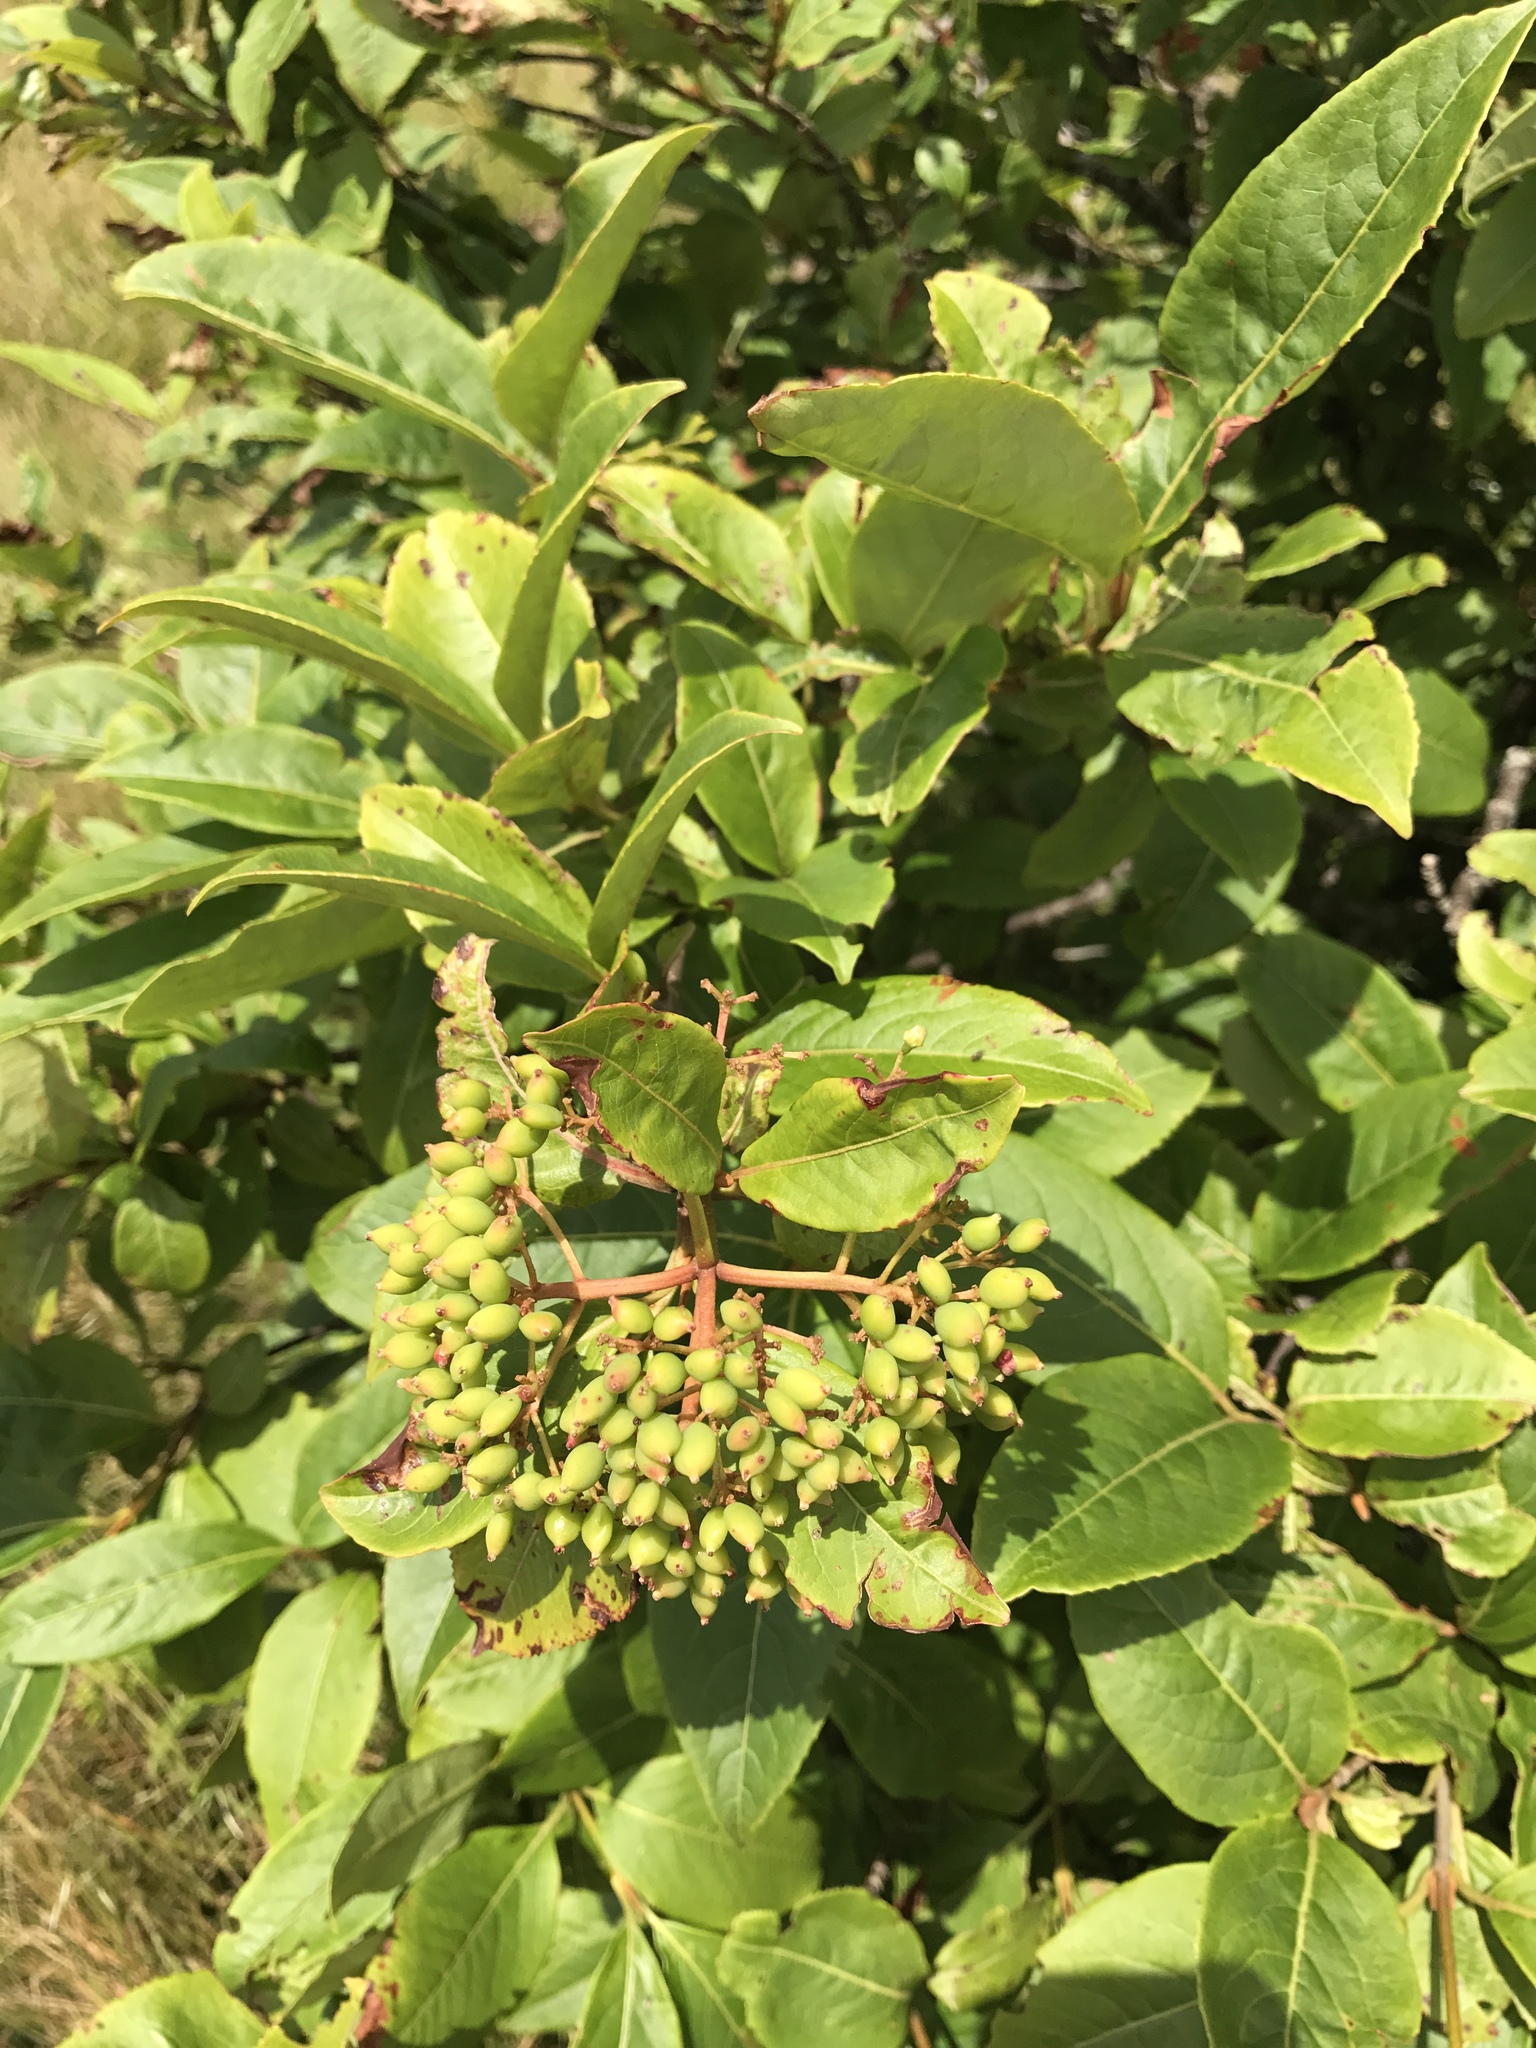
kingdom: Plantae
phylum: Tracheophyta
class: Magnoliopsida
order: Dipsacales
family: Viburnaceae
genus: Viburnum
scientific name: Viburnum cassinoides
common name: Swamp haw
